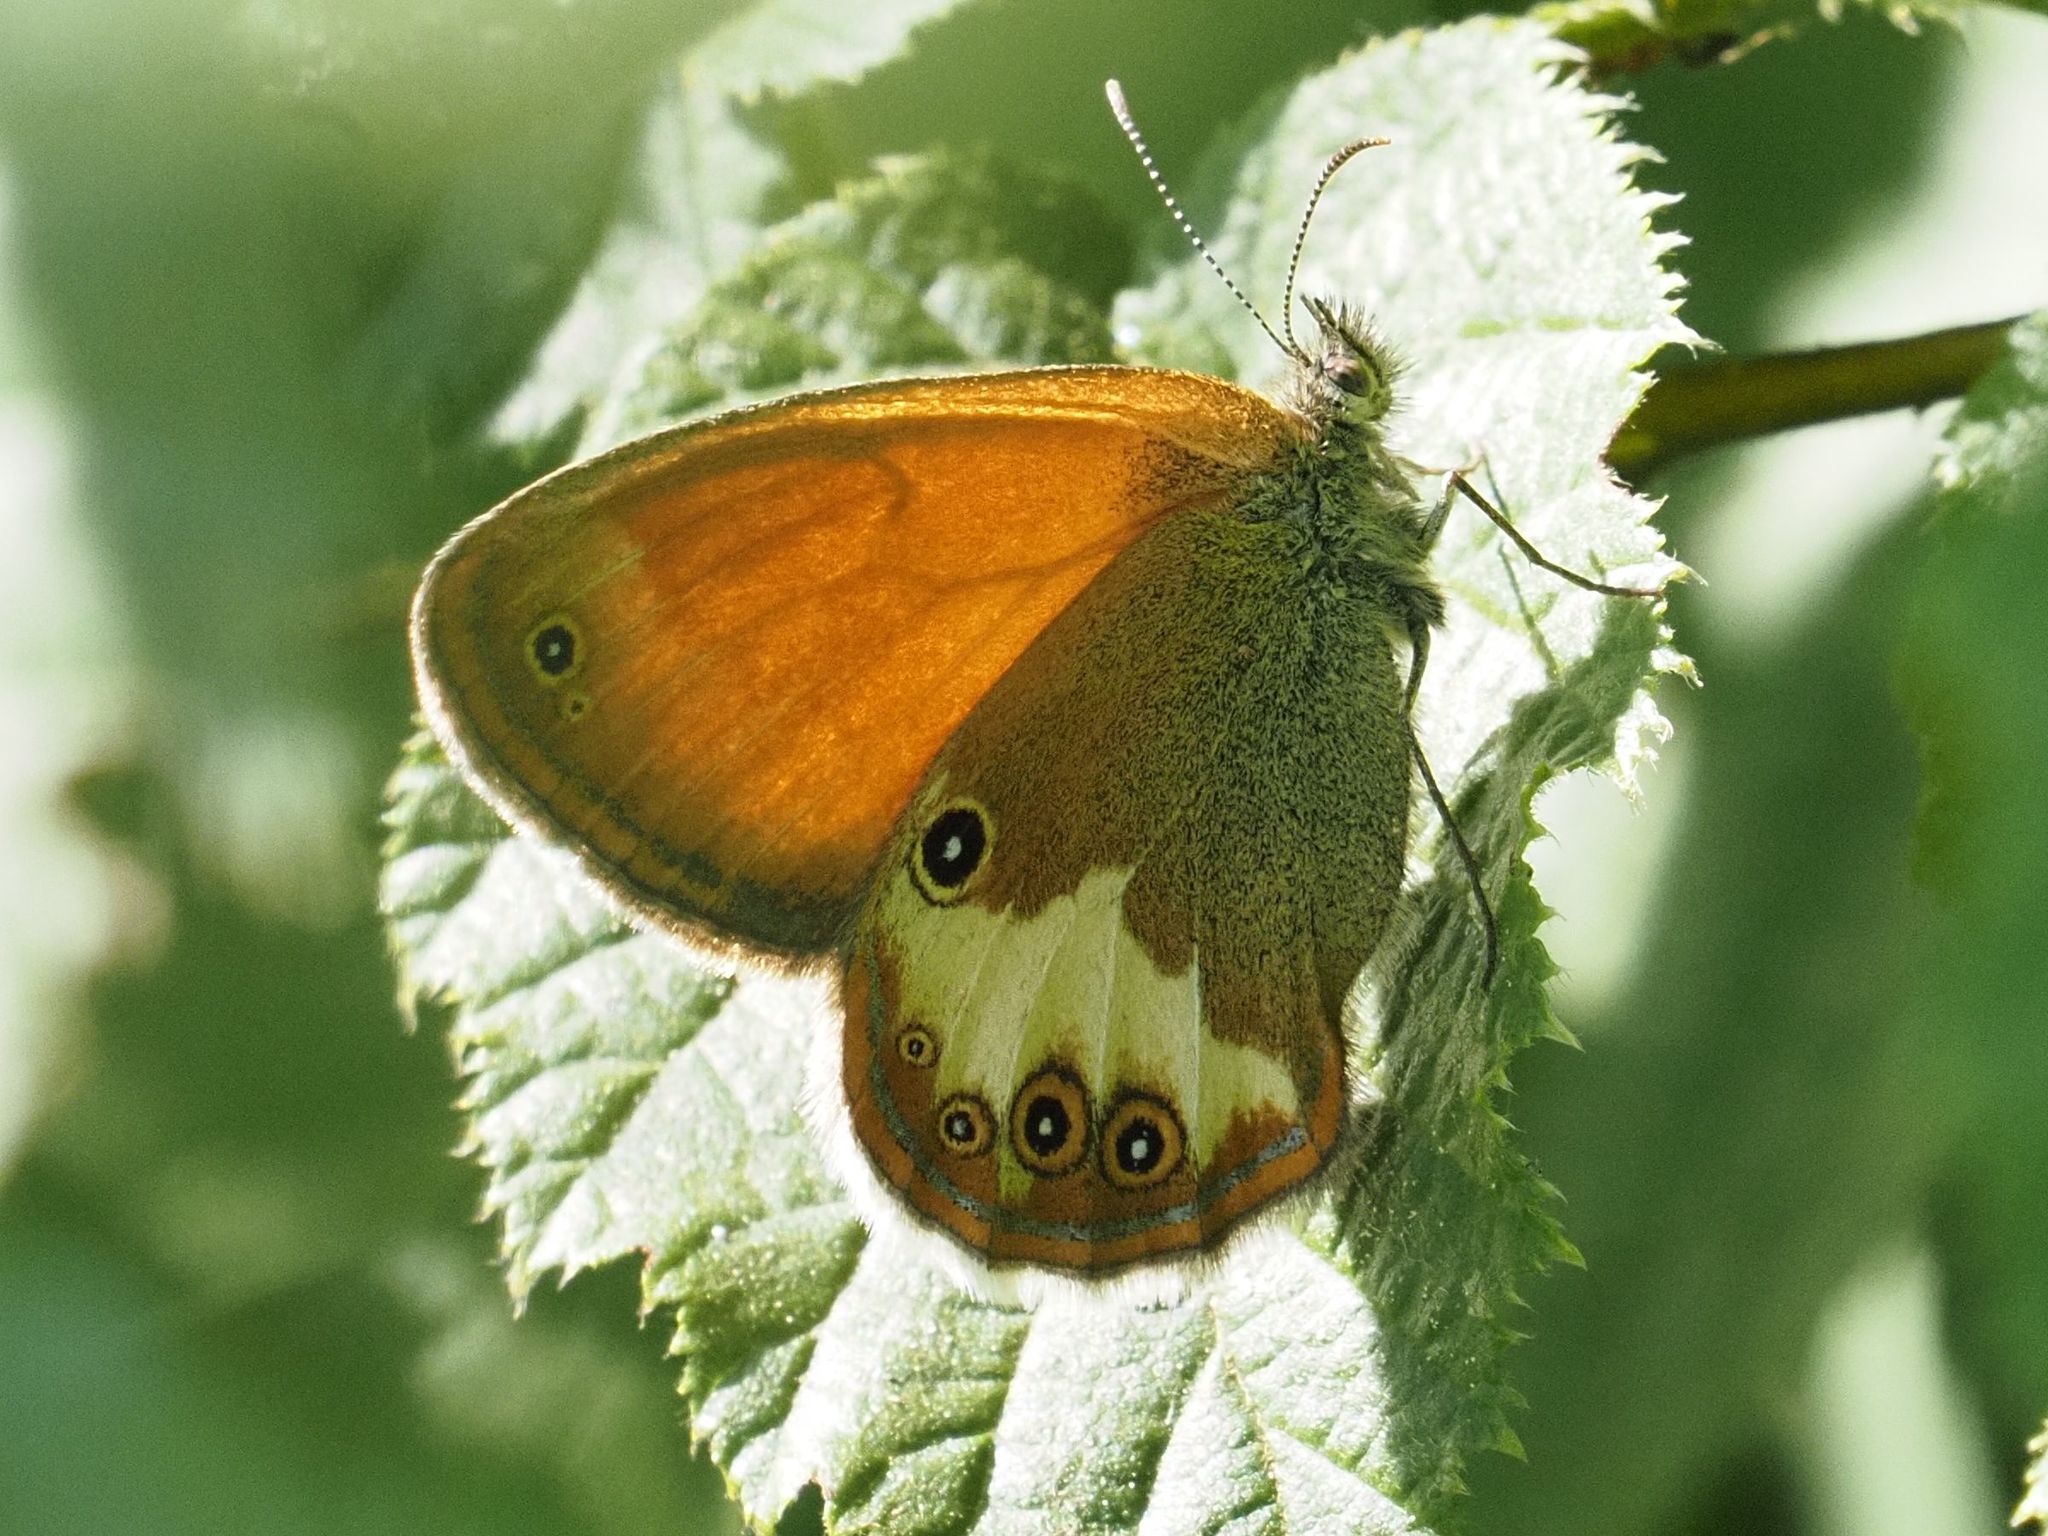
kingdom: Animalia
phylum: Arthropoda
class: Insecta
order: Lepidoptera
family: Nymphalidae
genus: Coenonympha
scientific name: Coenonympha arcania
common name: Pearly heath
